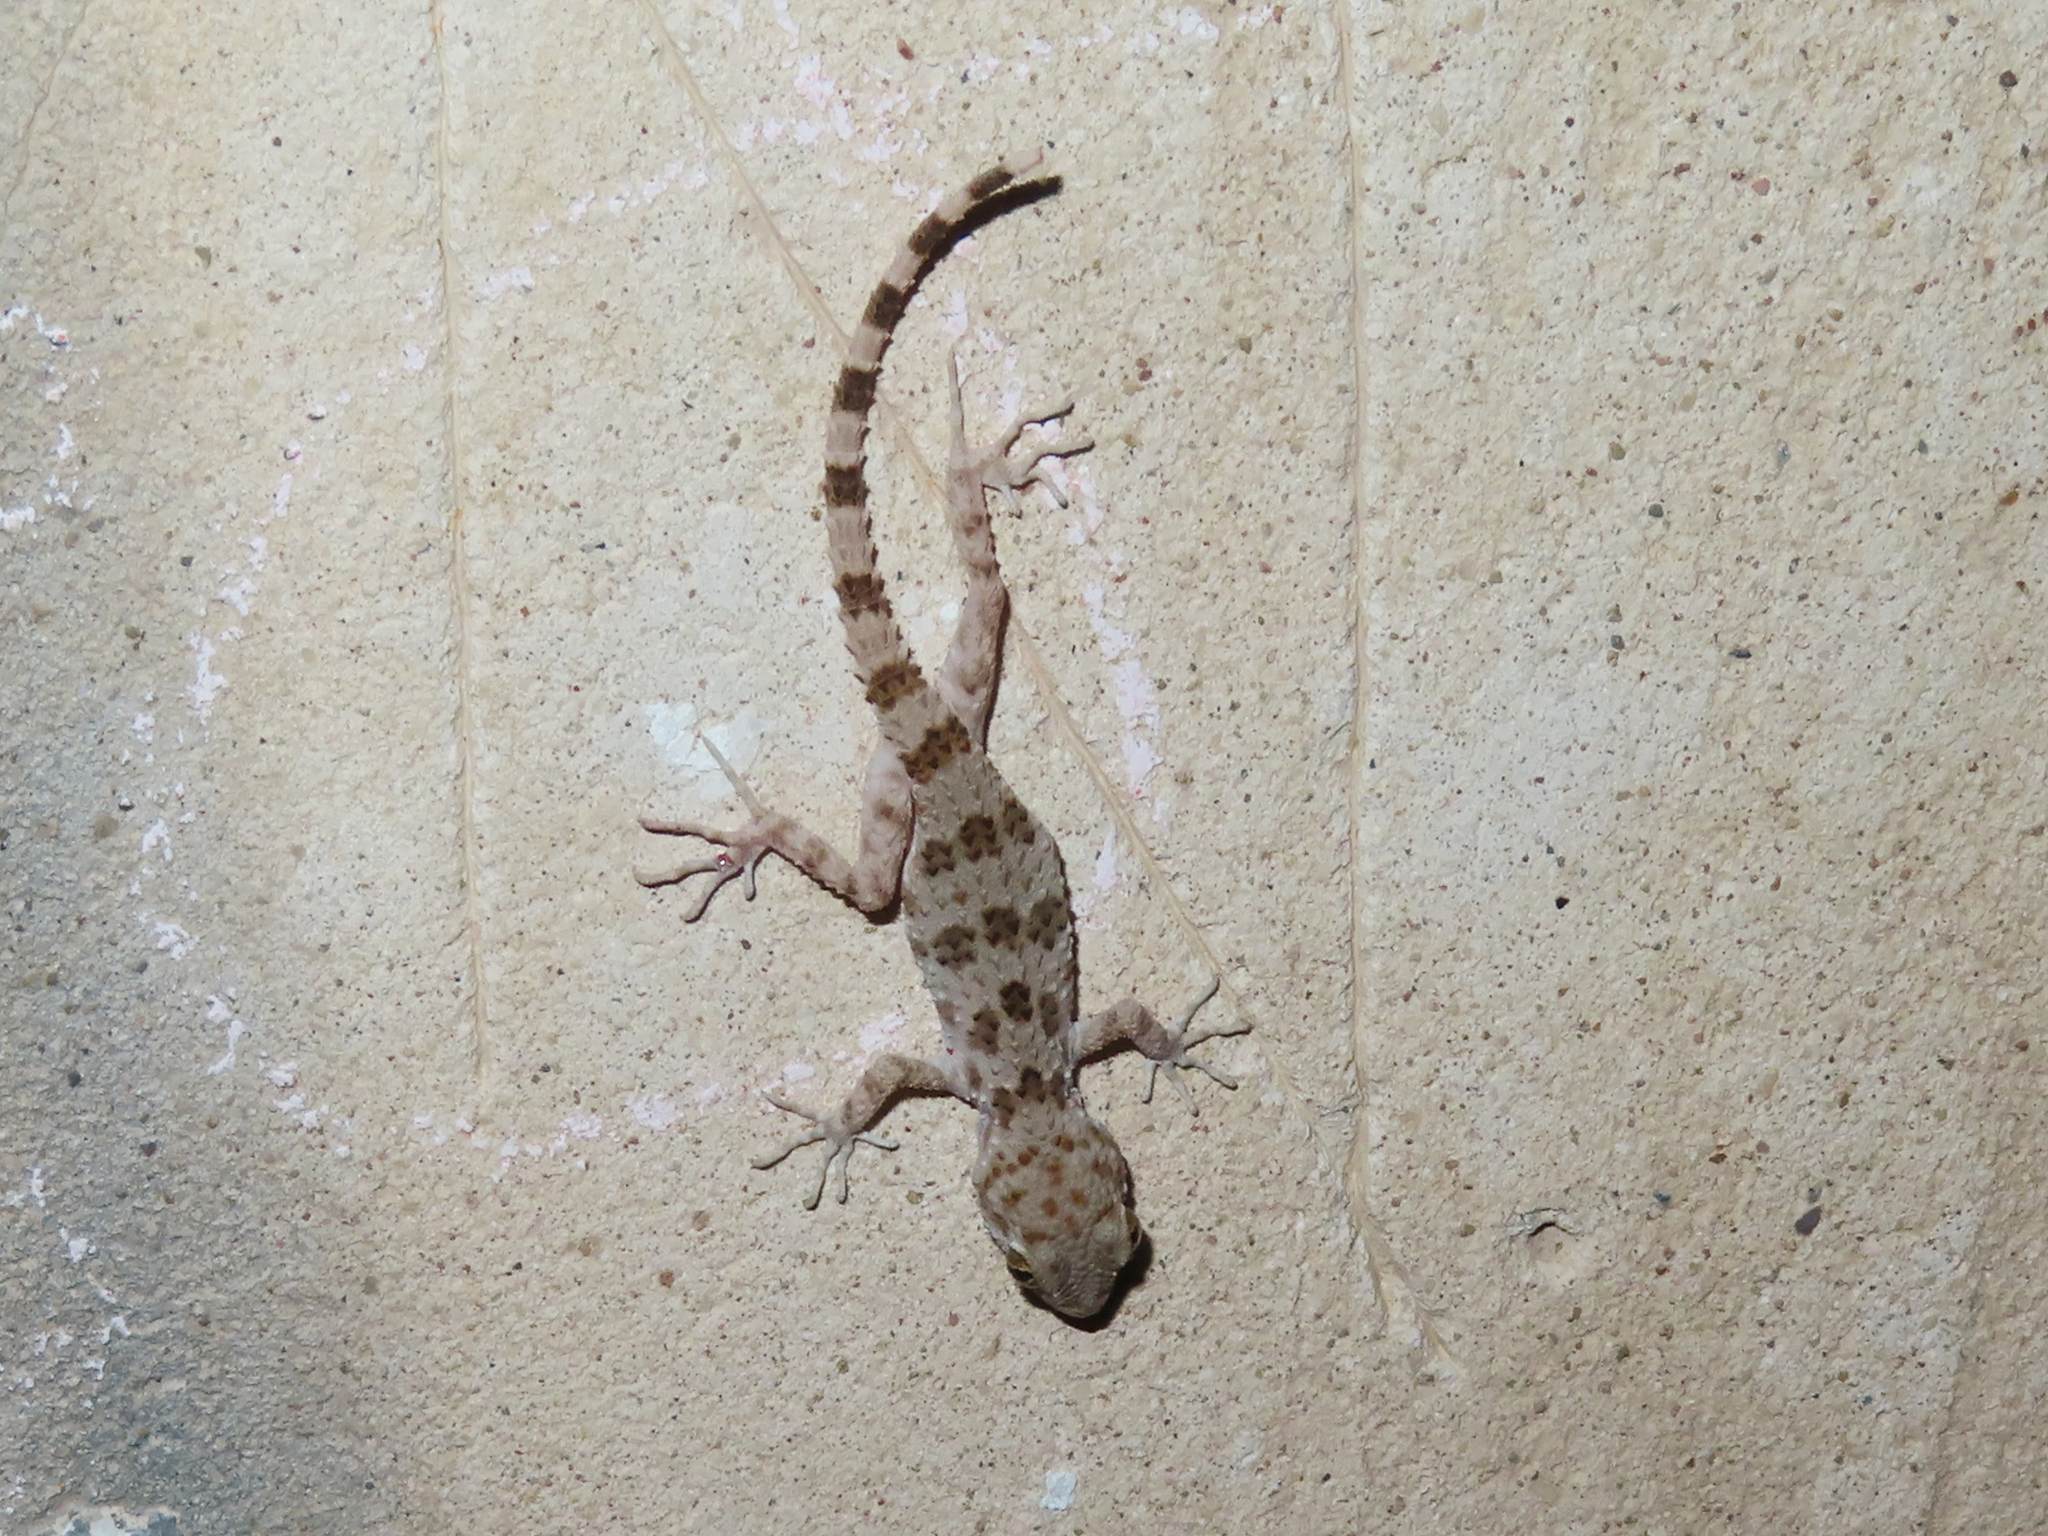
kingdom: Animalia
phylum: Chordata
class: Squamata
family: Gekkonidae
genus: Tenuidactylus
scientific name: Tenuidactylus caspius
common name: Caspian bent-toed gecko
